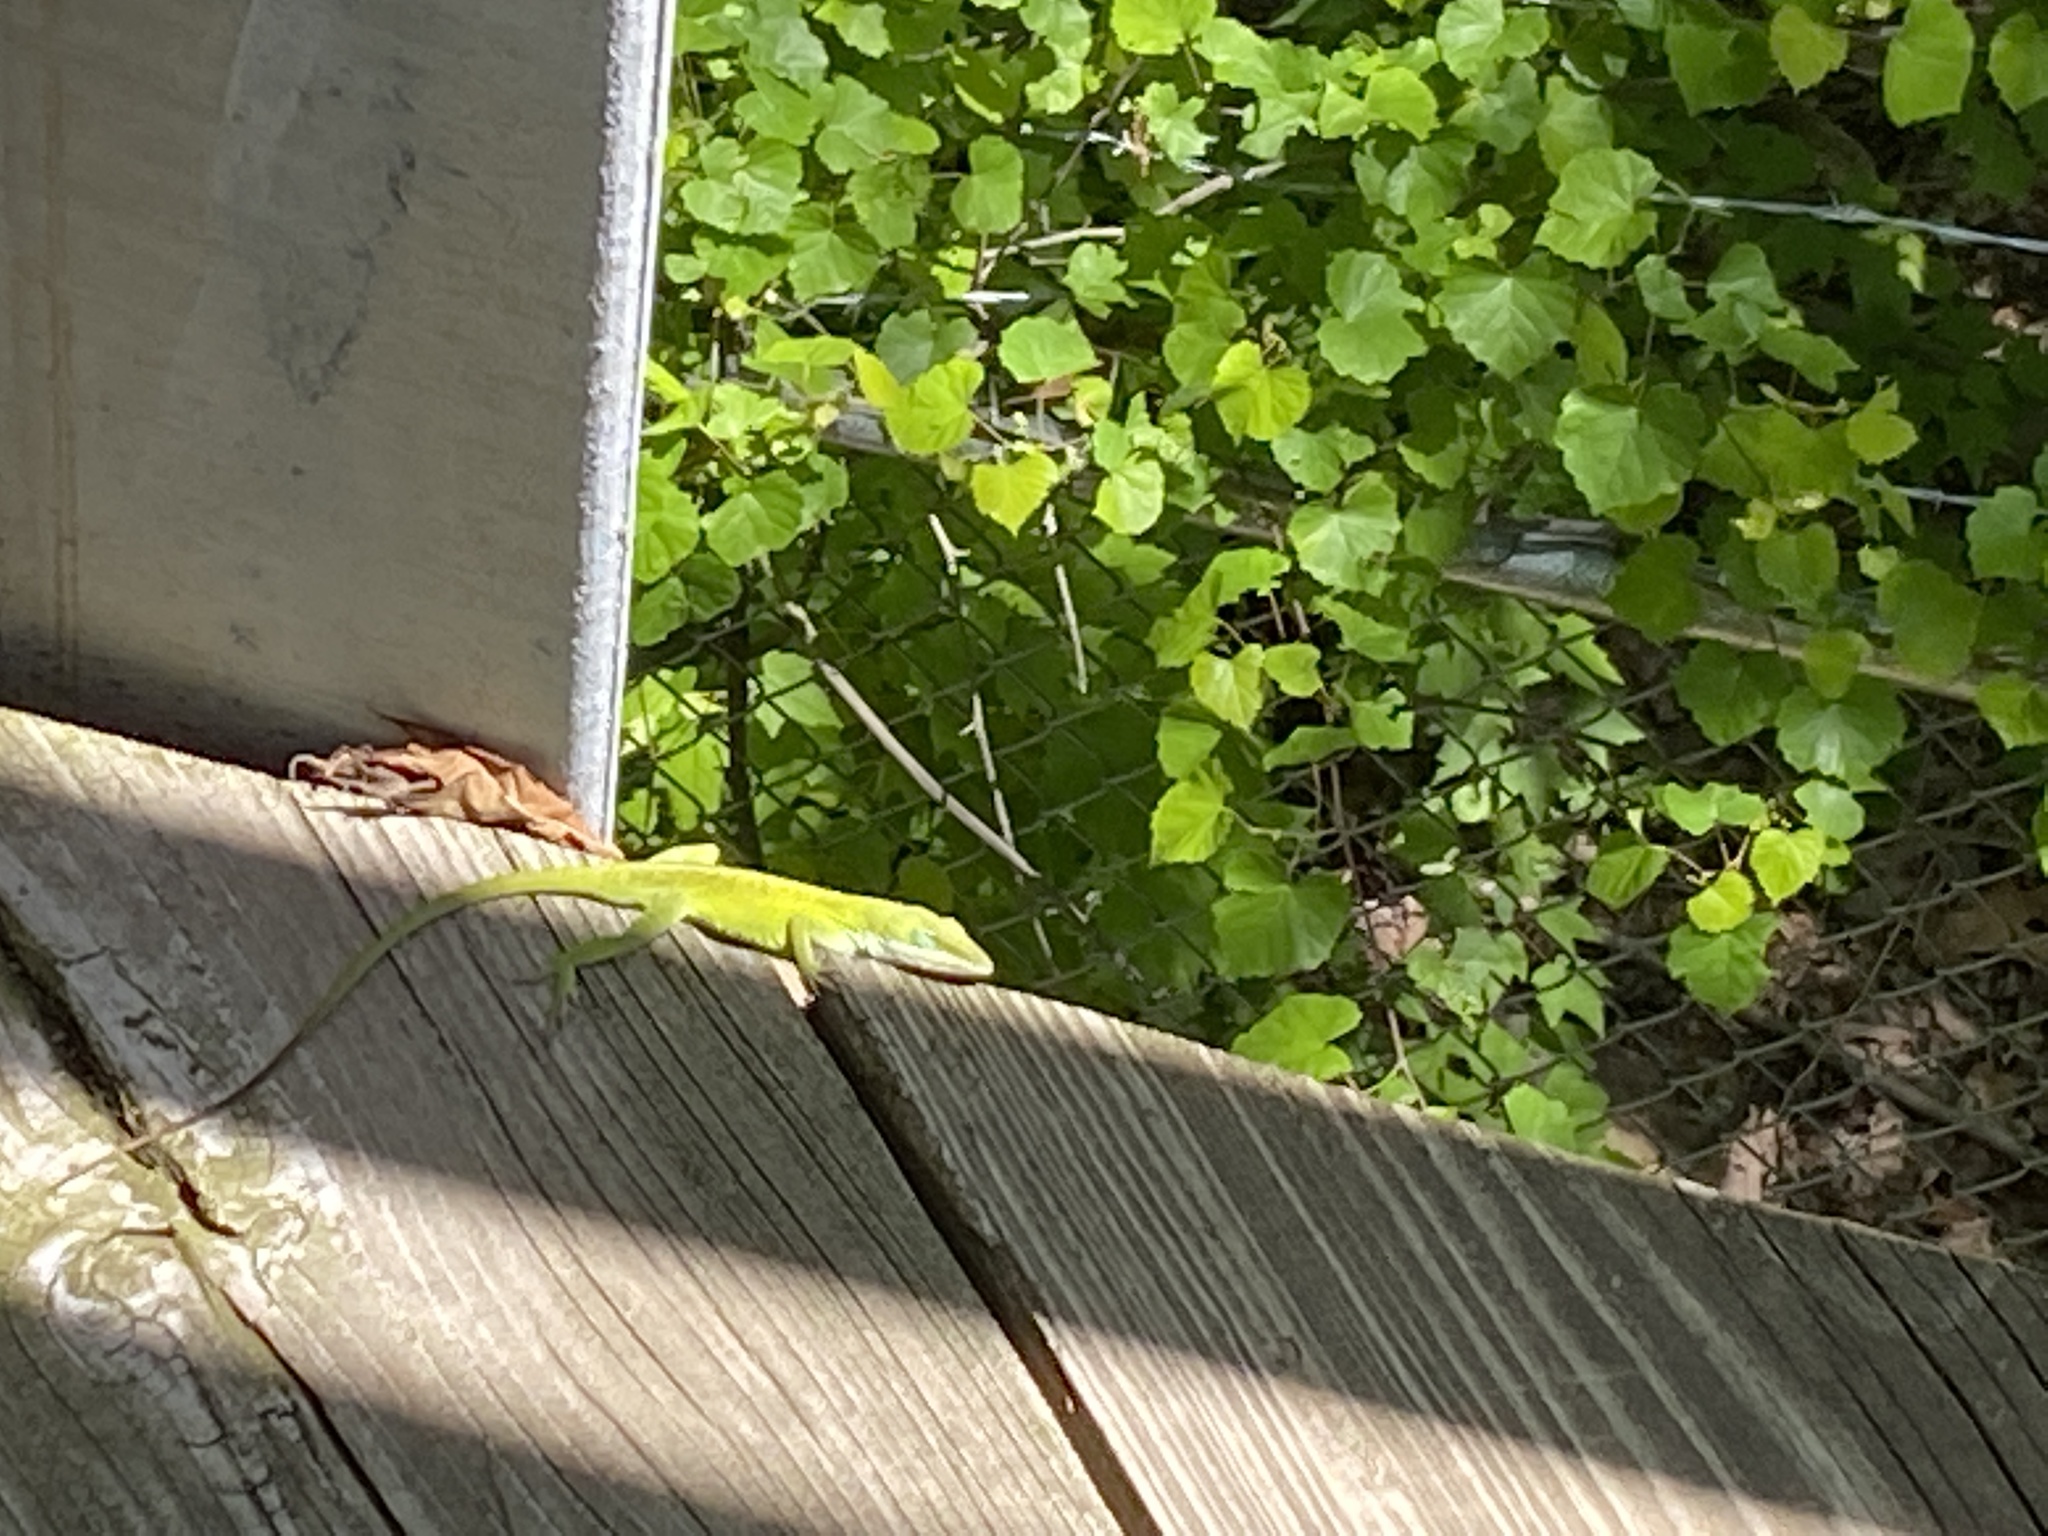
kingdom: Animalia
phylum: Chordata
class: Squamata
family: Dactyloidae
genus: Anolis
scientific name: Anolis carolinensis
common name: Green anole
